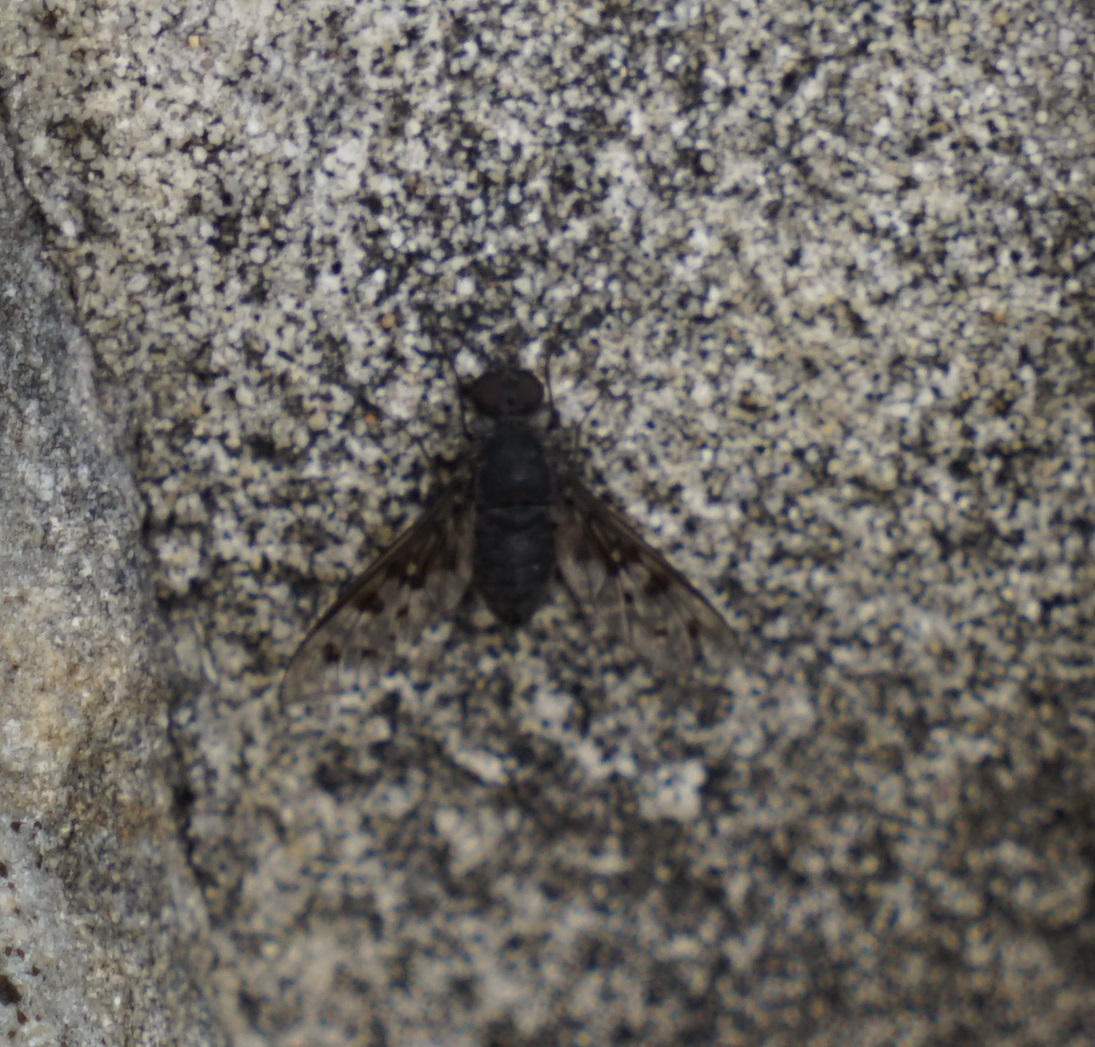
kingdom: Animalia
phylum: Arthropoda
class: Insecta
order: Diptera
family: Bombyliidae
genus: Anthrax
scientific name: Anthrax incomptus
